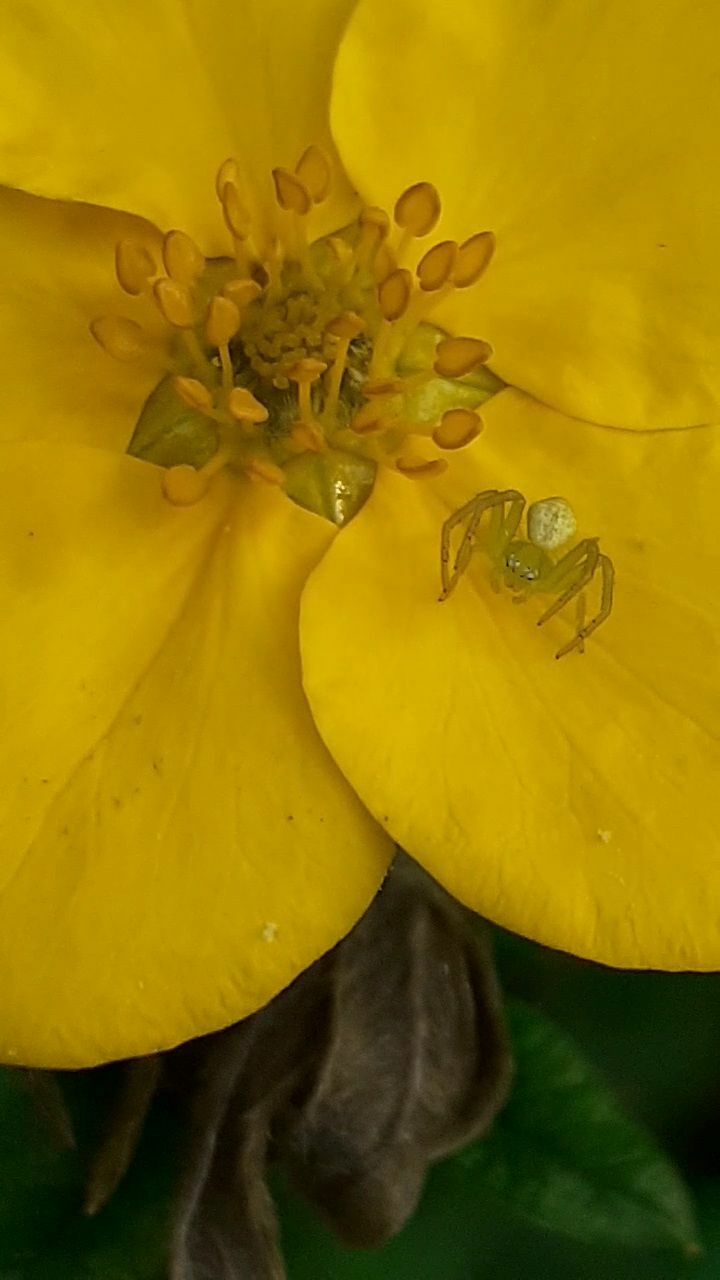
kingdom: Animalia
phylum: Arthropoda
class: Arachnida
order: Araneae
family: Thomisidae
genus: Ebrechtella
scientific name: Ebrechtella tricuspidata
